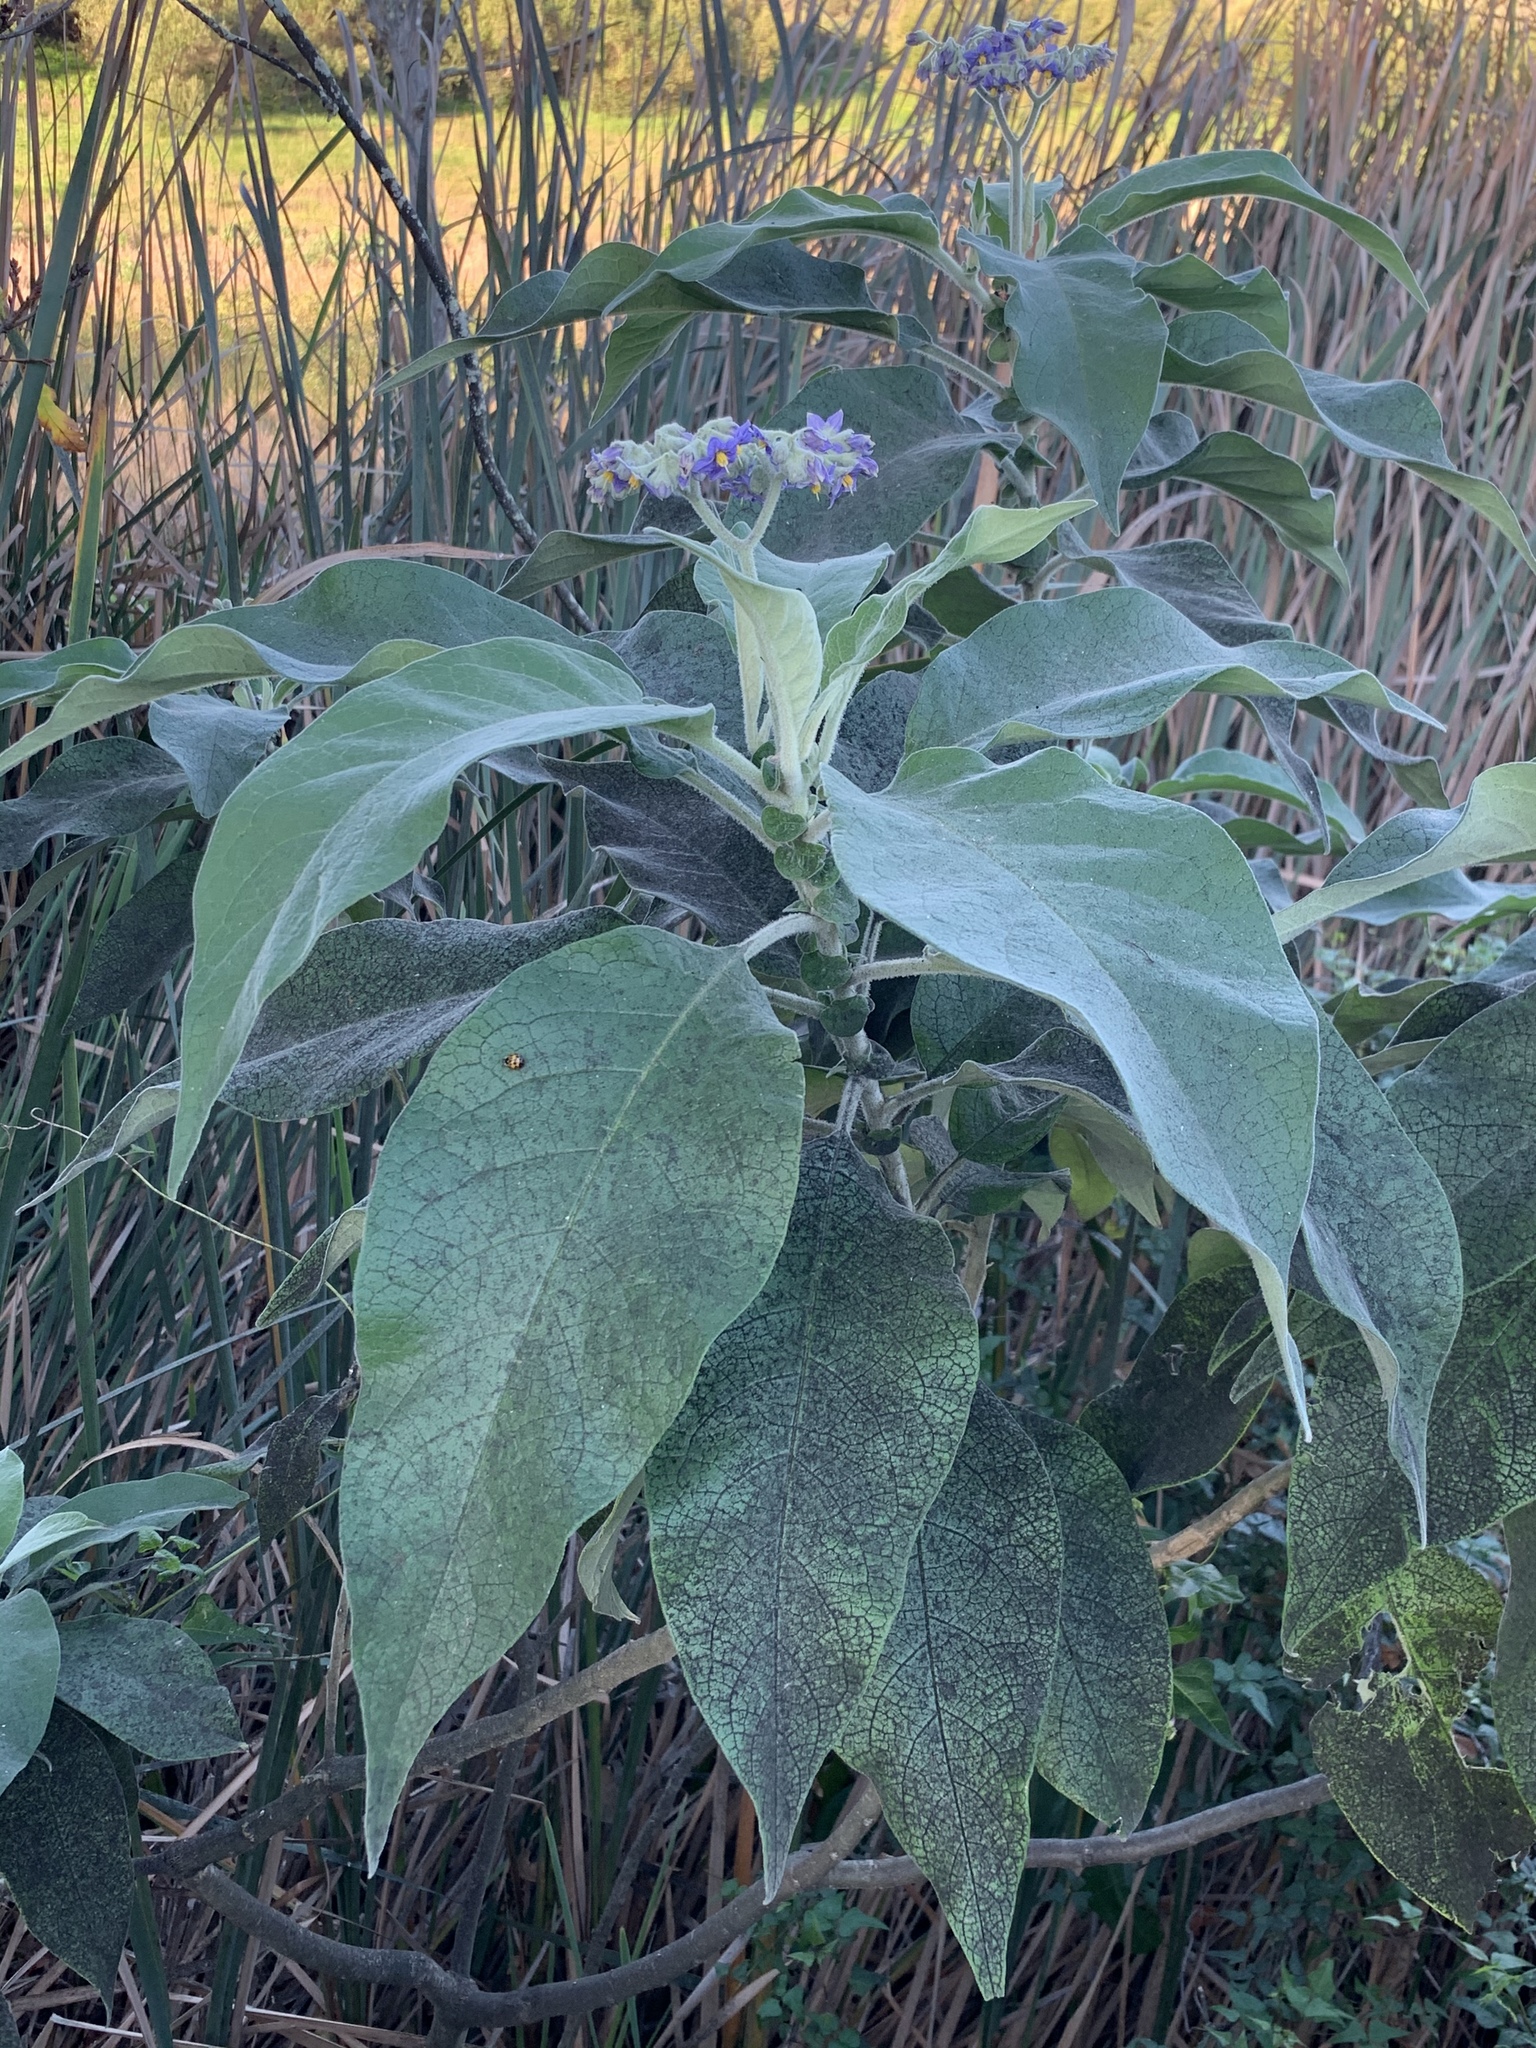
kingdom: Plantae
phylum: Tracheophyta
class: Magnoliopsida
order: Solanales
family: Solanaceae
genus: Solanum
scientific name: Solanum mauritianum
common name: Earleaf nightshade
